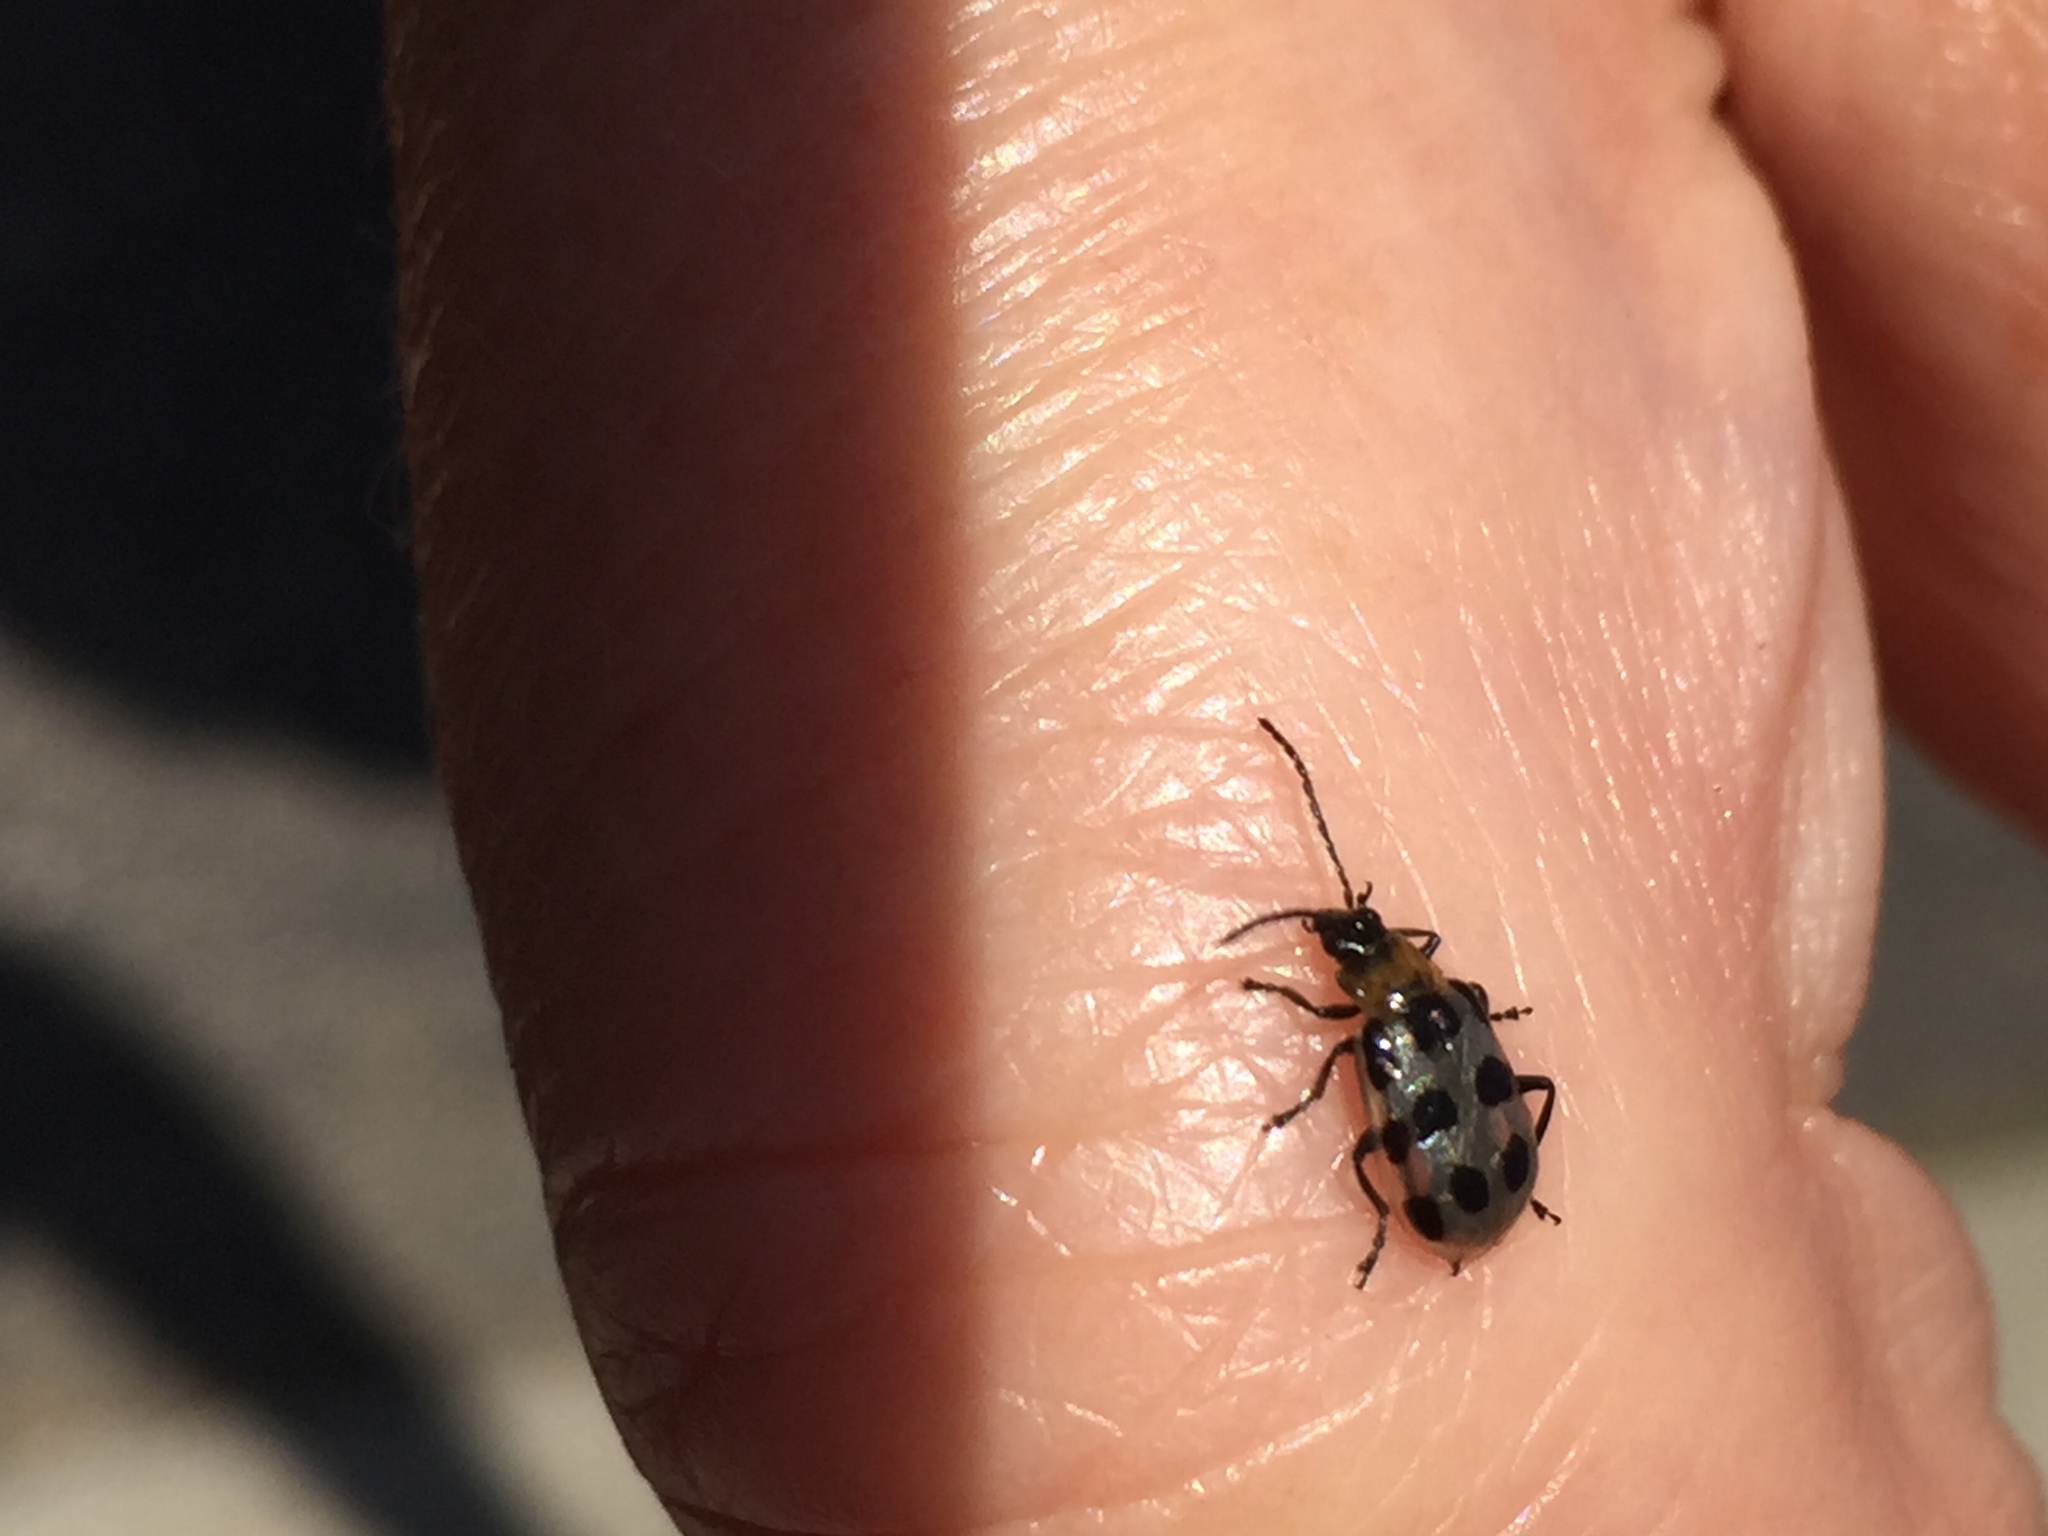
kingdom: Animalia
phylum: Arthropoda
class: Insecta
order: Coleoptera
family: Chrysomelidae
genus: Diabrotica
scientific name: Diabrotica undecimpunctata
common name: Spotted cucumber beetle
